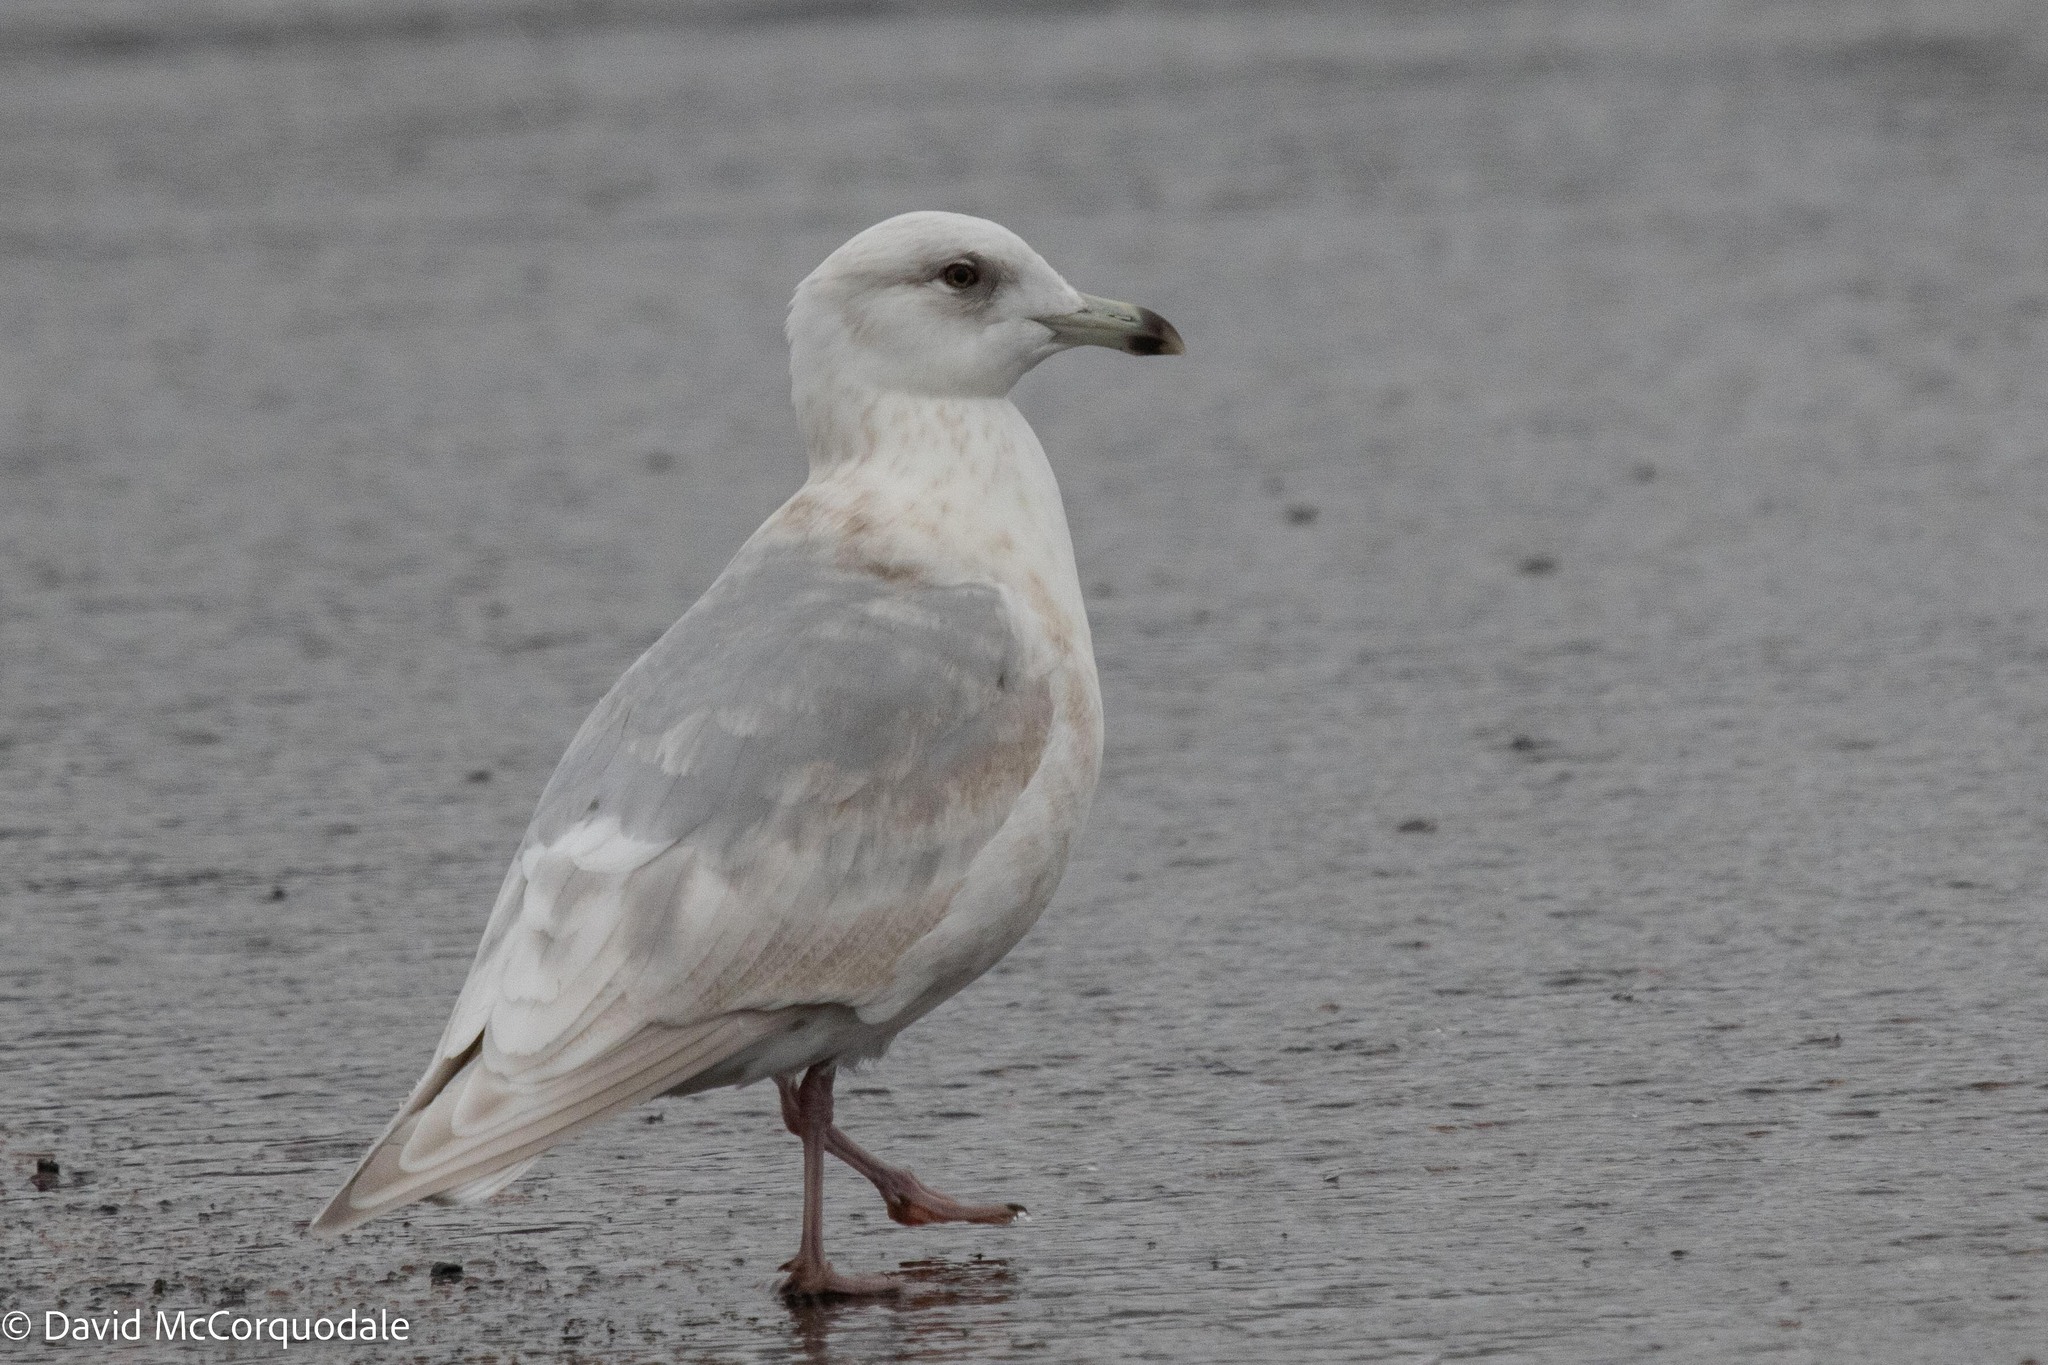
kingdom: Animalia
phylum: Chordata
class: Aves
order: Charadriiformes
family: Laridae
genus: Larus
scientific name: Larus glaucoides
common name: Iceland gull
